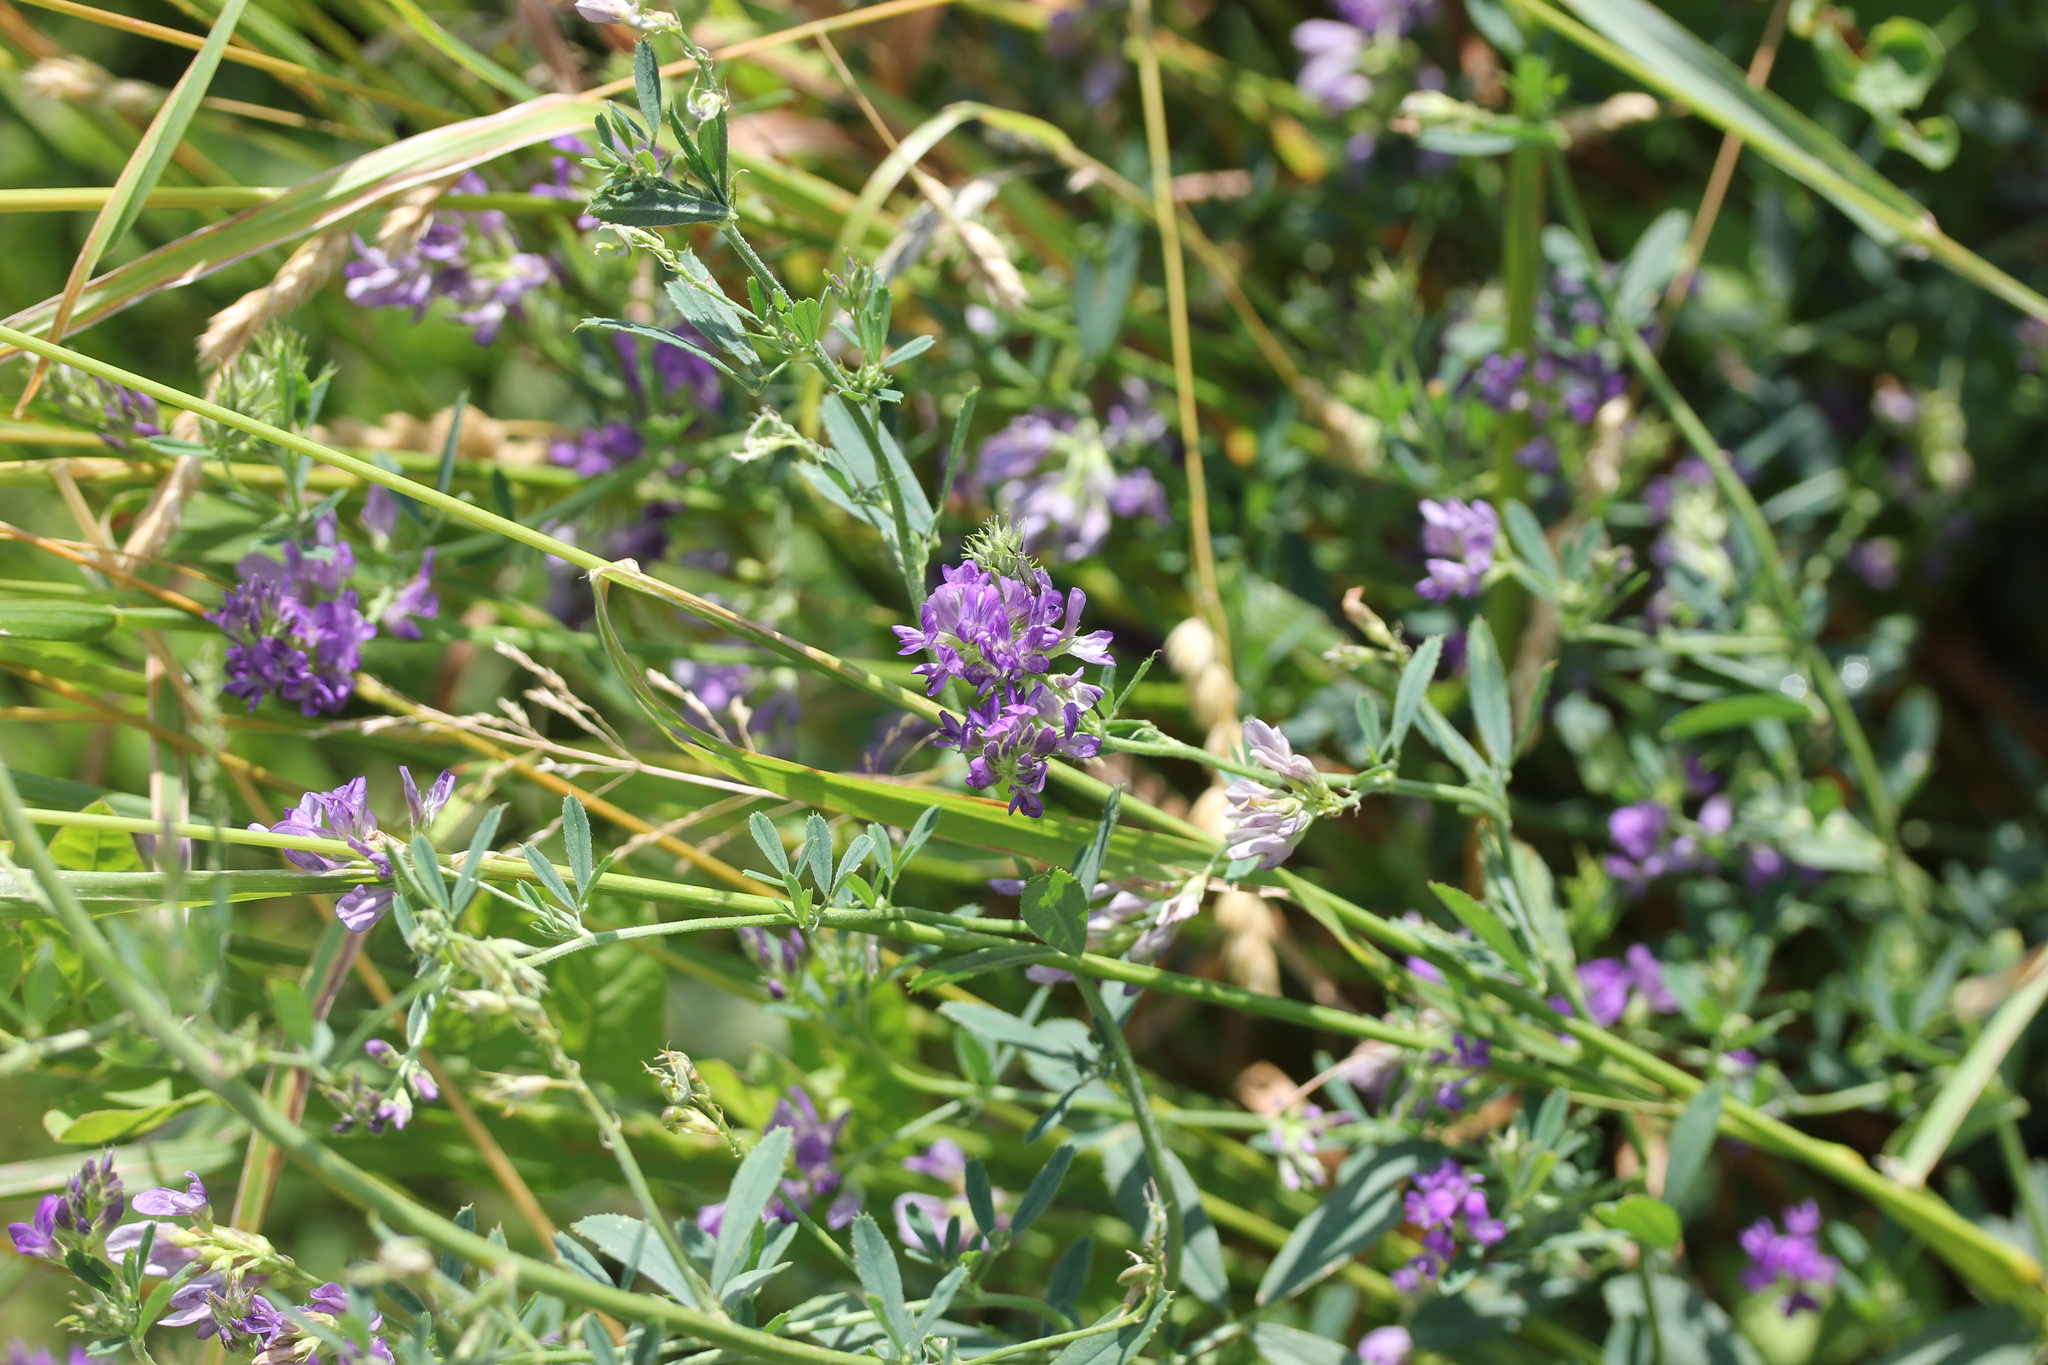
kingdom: Plantae
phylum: Tracheophyta
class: Magnoliopsida
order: Fabales
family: Fabaceae
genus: Medicago
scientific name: Medicago sativa
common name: Alfalfa
